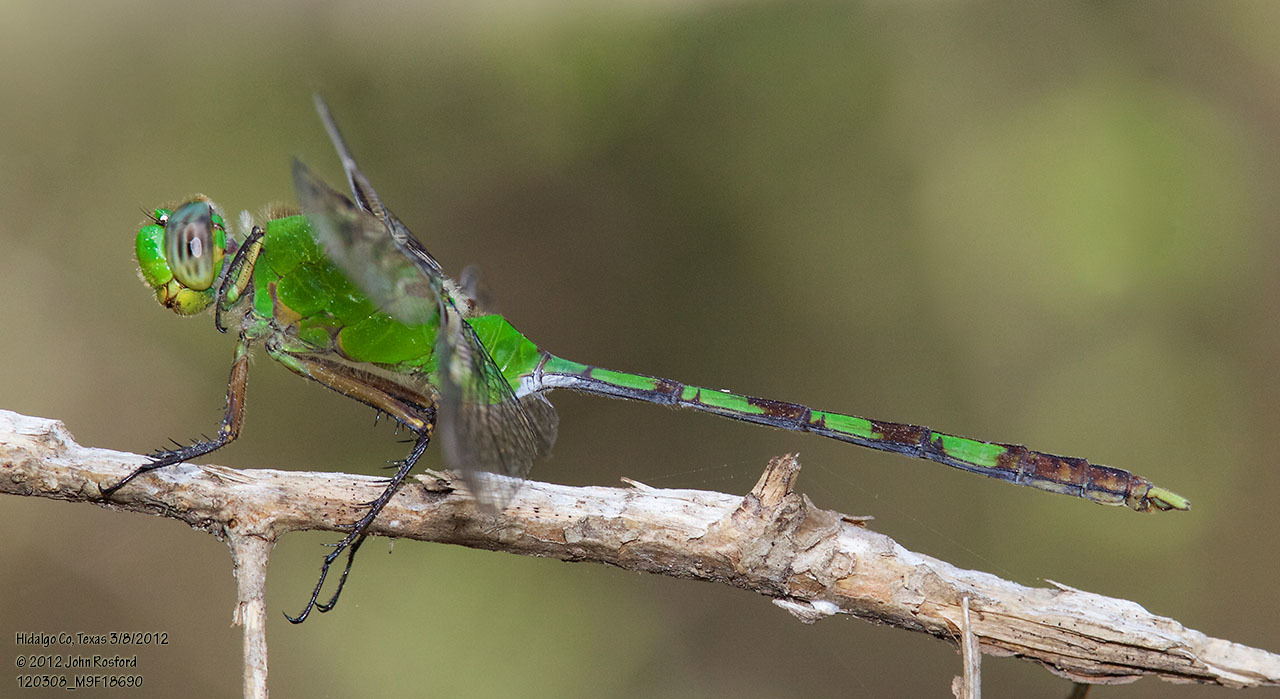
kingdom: Animalia
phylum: Arthropoda
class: Insecta
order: Odonata
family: Libellulidae
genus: Erythemis
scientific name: Erythemis vesiculosa
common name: Great pondhawk
